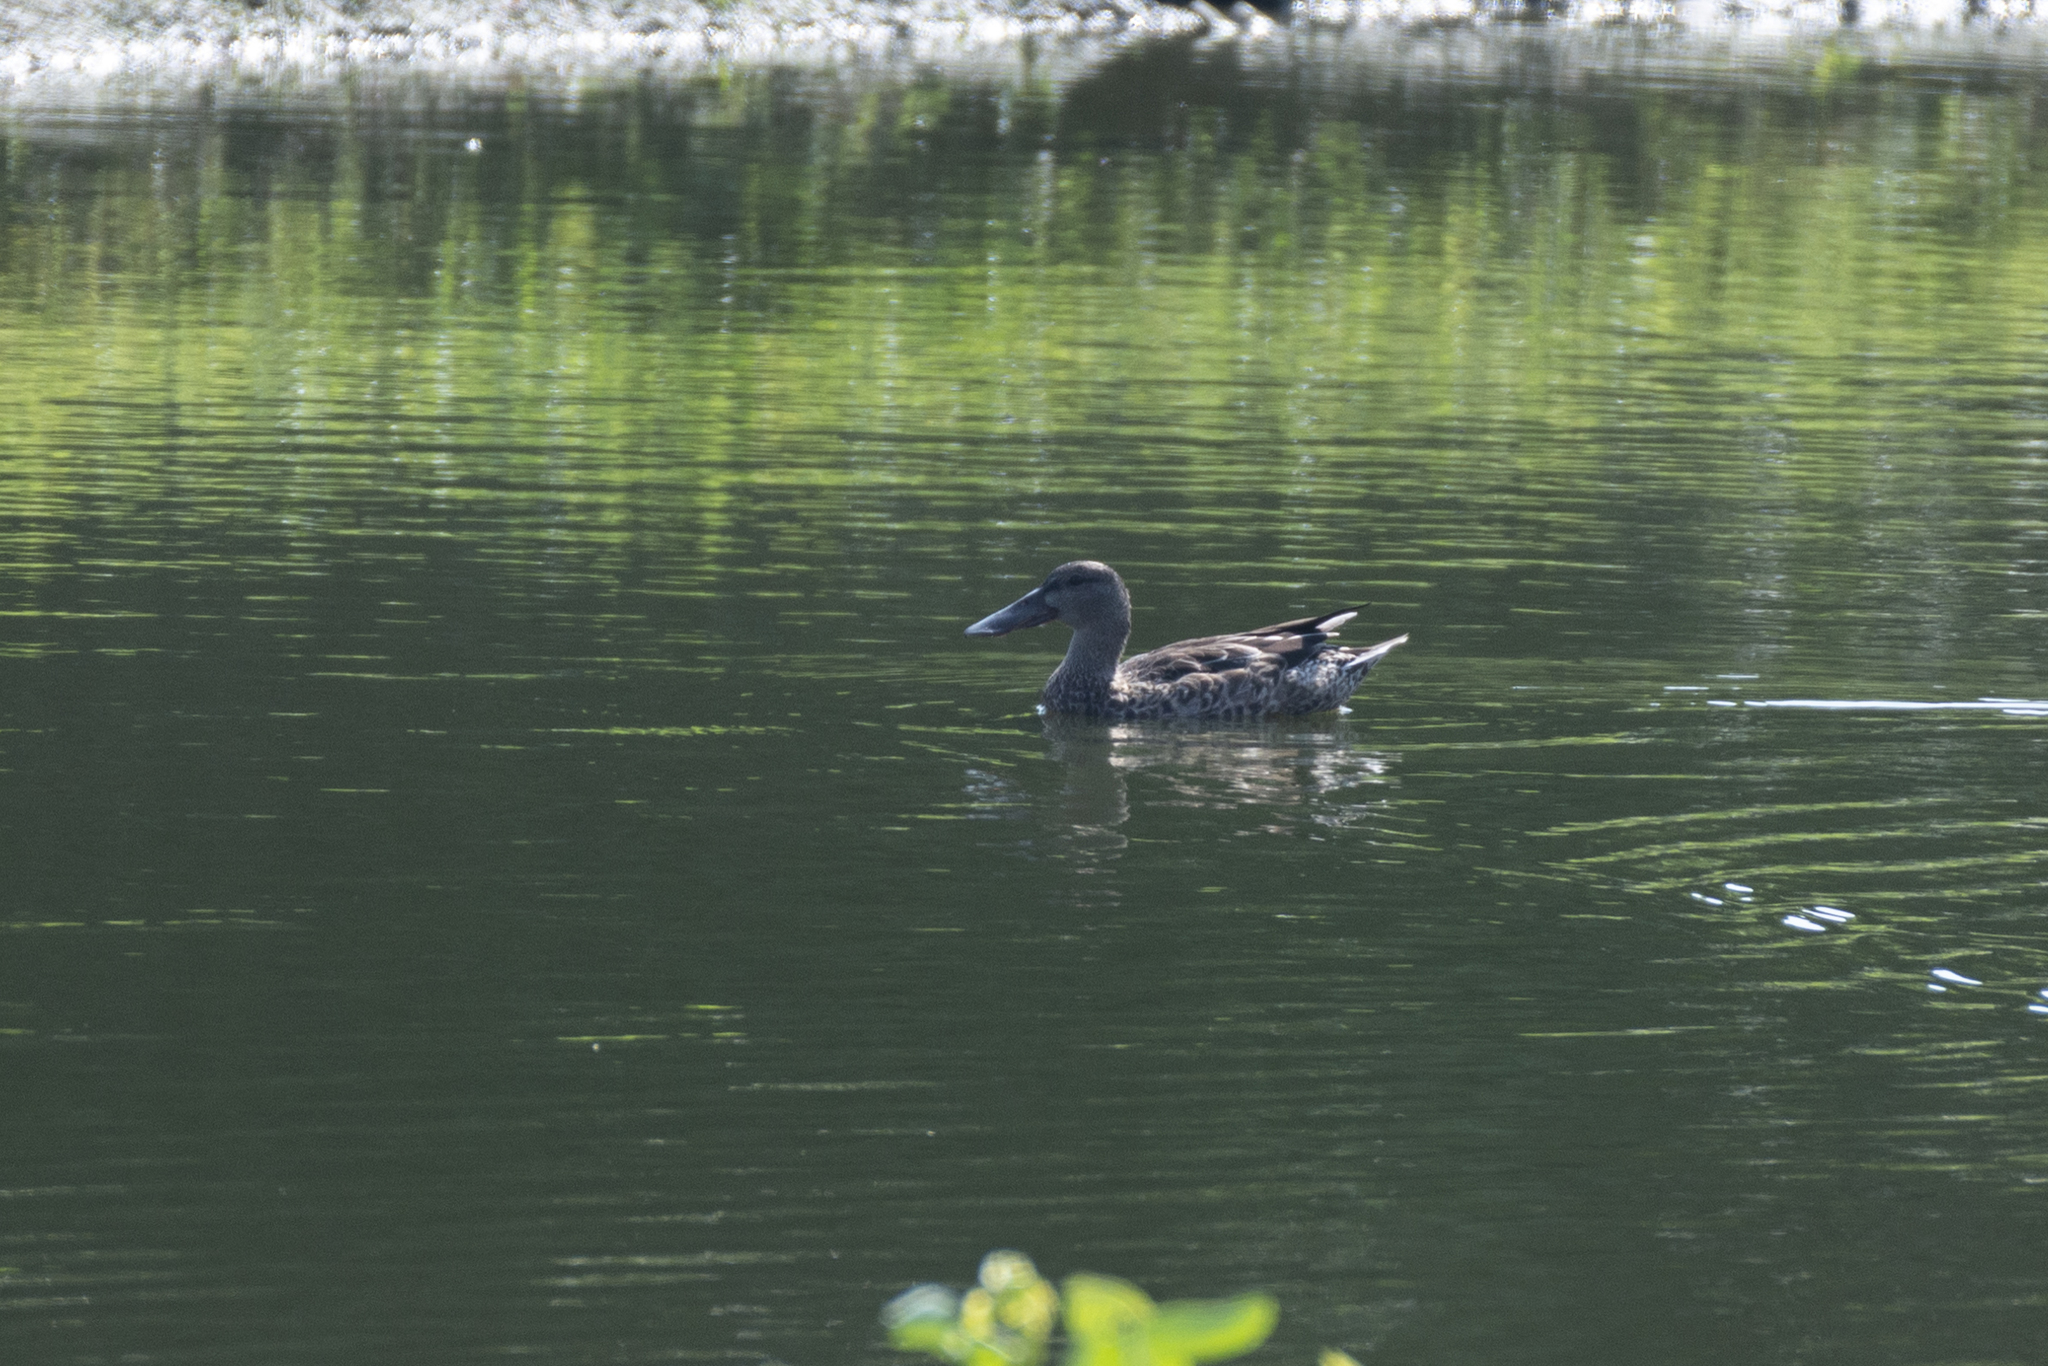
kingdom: Animalia
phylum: Chordata
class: Aves
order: Anseriformes
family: Anatidae
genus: Spatula
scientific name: Spatula clypeata
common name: Northern shoveler
